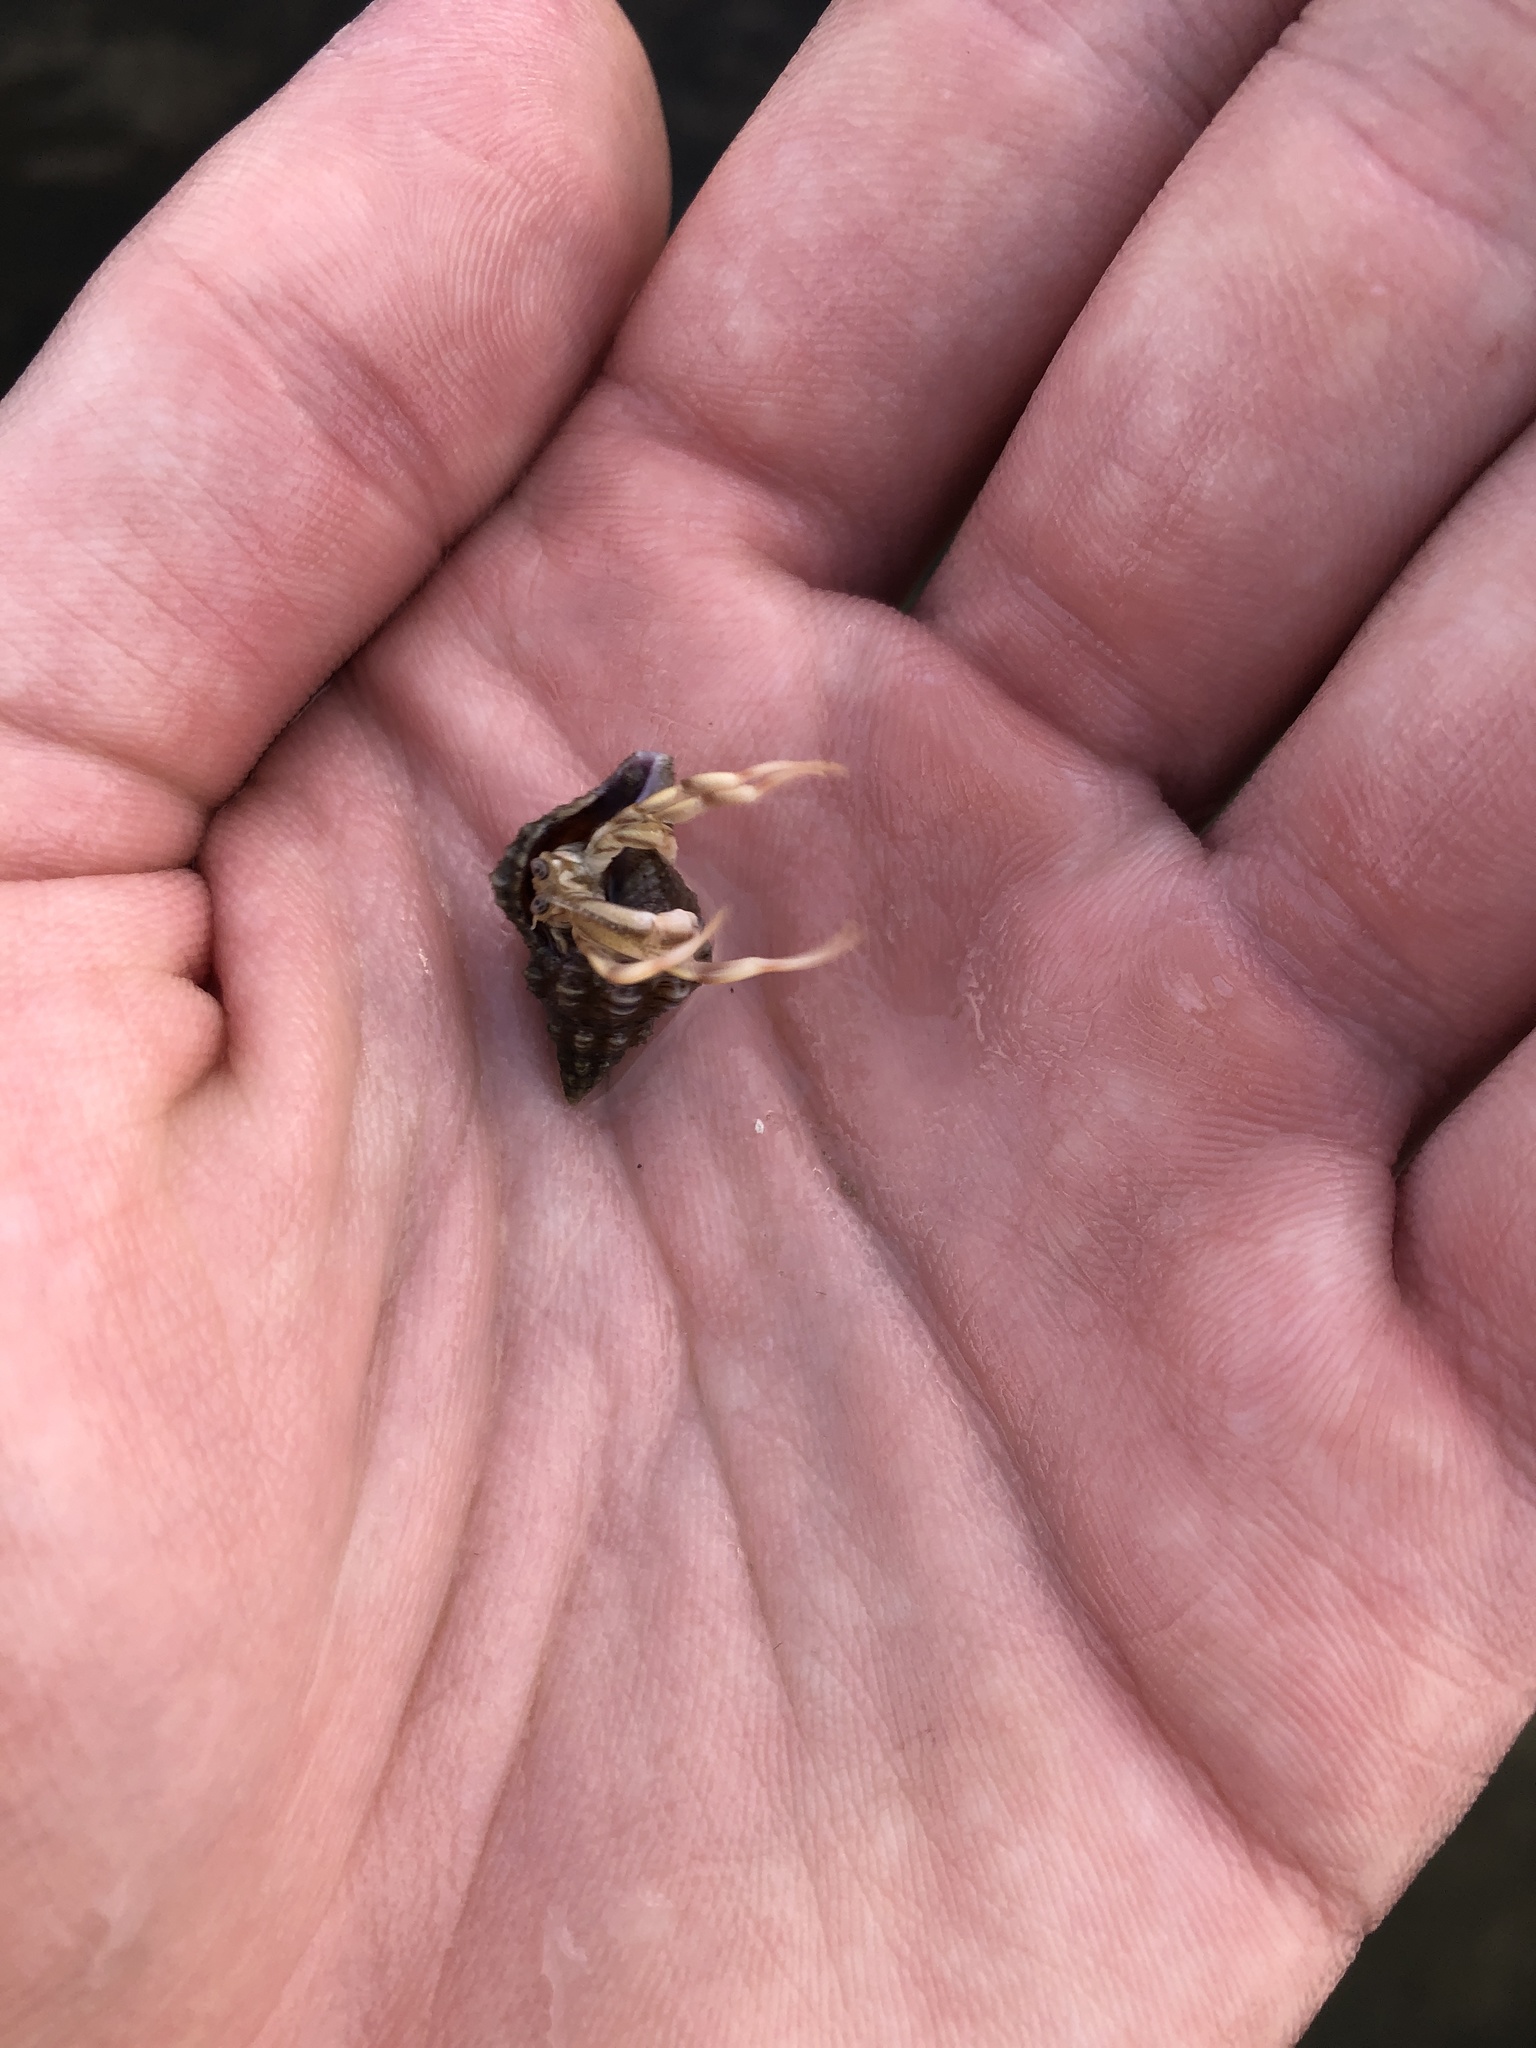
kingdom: Animalia
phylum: Arthropoda
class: Malacostraca
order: Decapoda
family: Paguridae
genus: Pagurus
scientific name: Pagurus longicarpus
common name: Long-armed hermit crab
